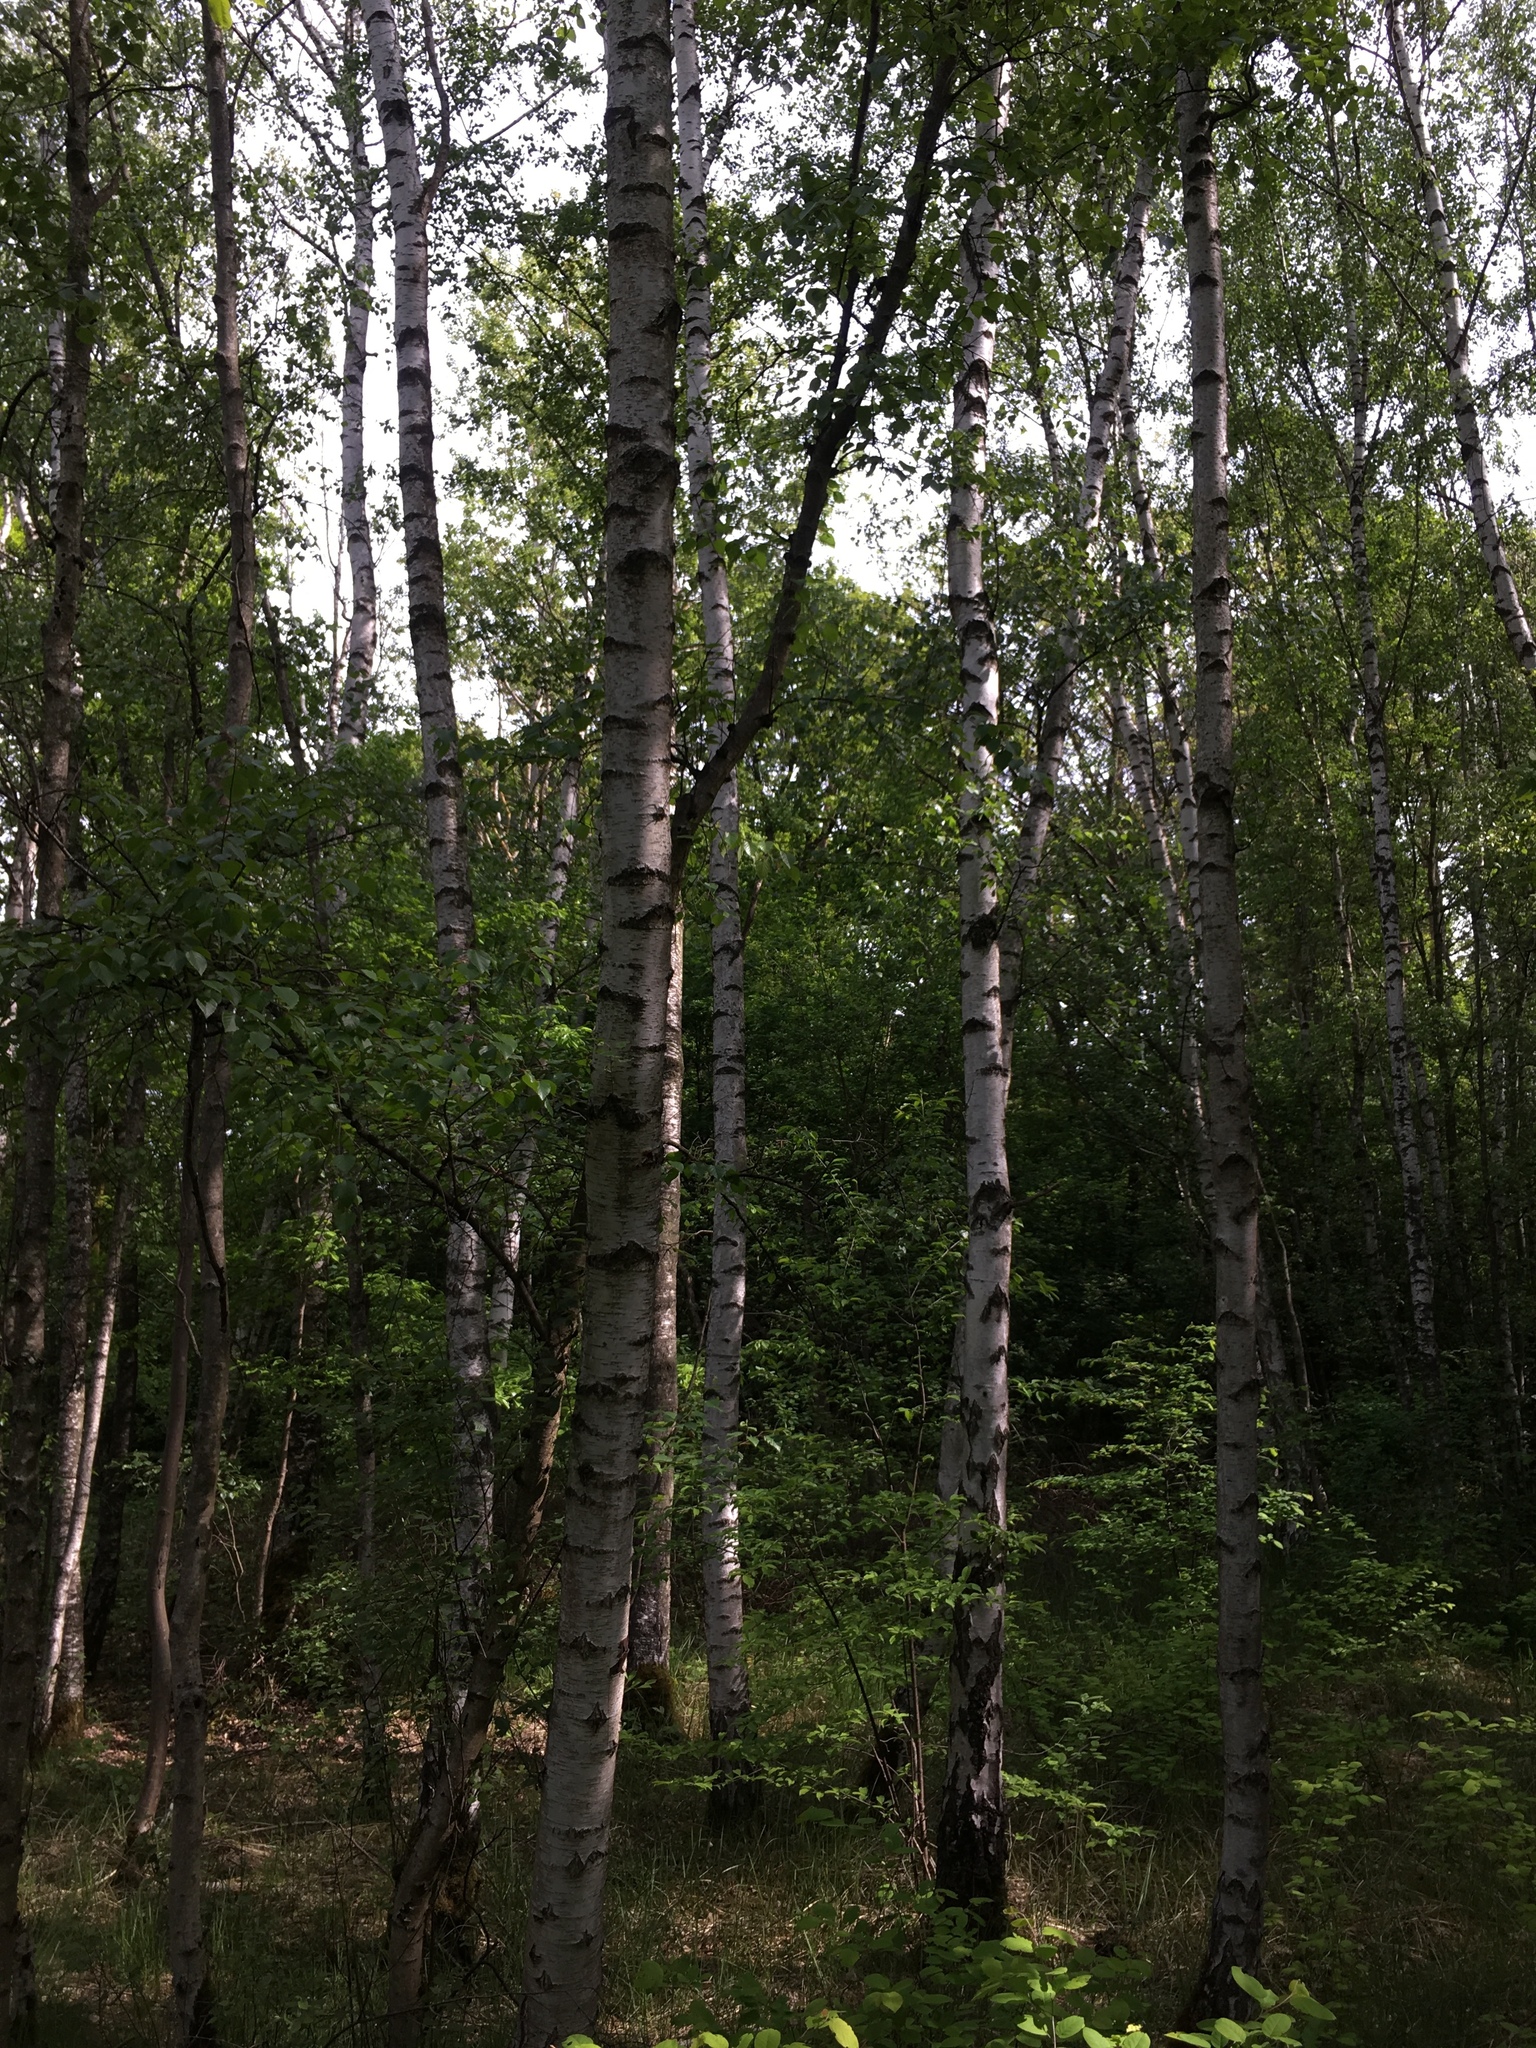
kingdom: Plantae
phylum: Tracheophyta
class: Magnoliopsida
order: Fagales
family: Betulaceae
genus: Betula
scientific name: Betula pendula
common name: Silver birch
